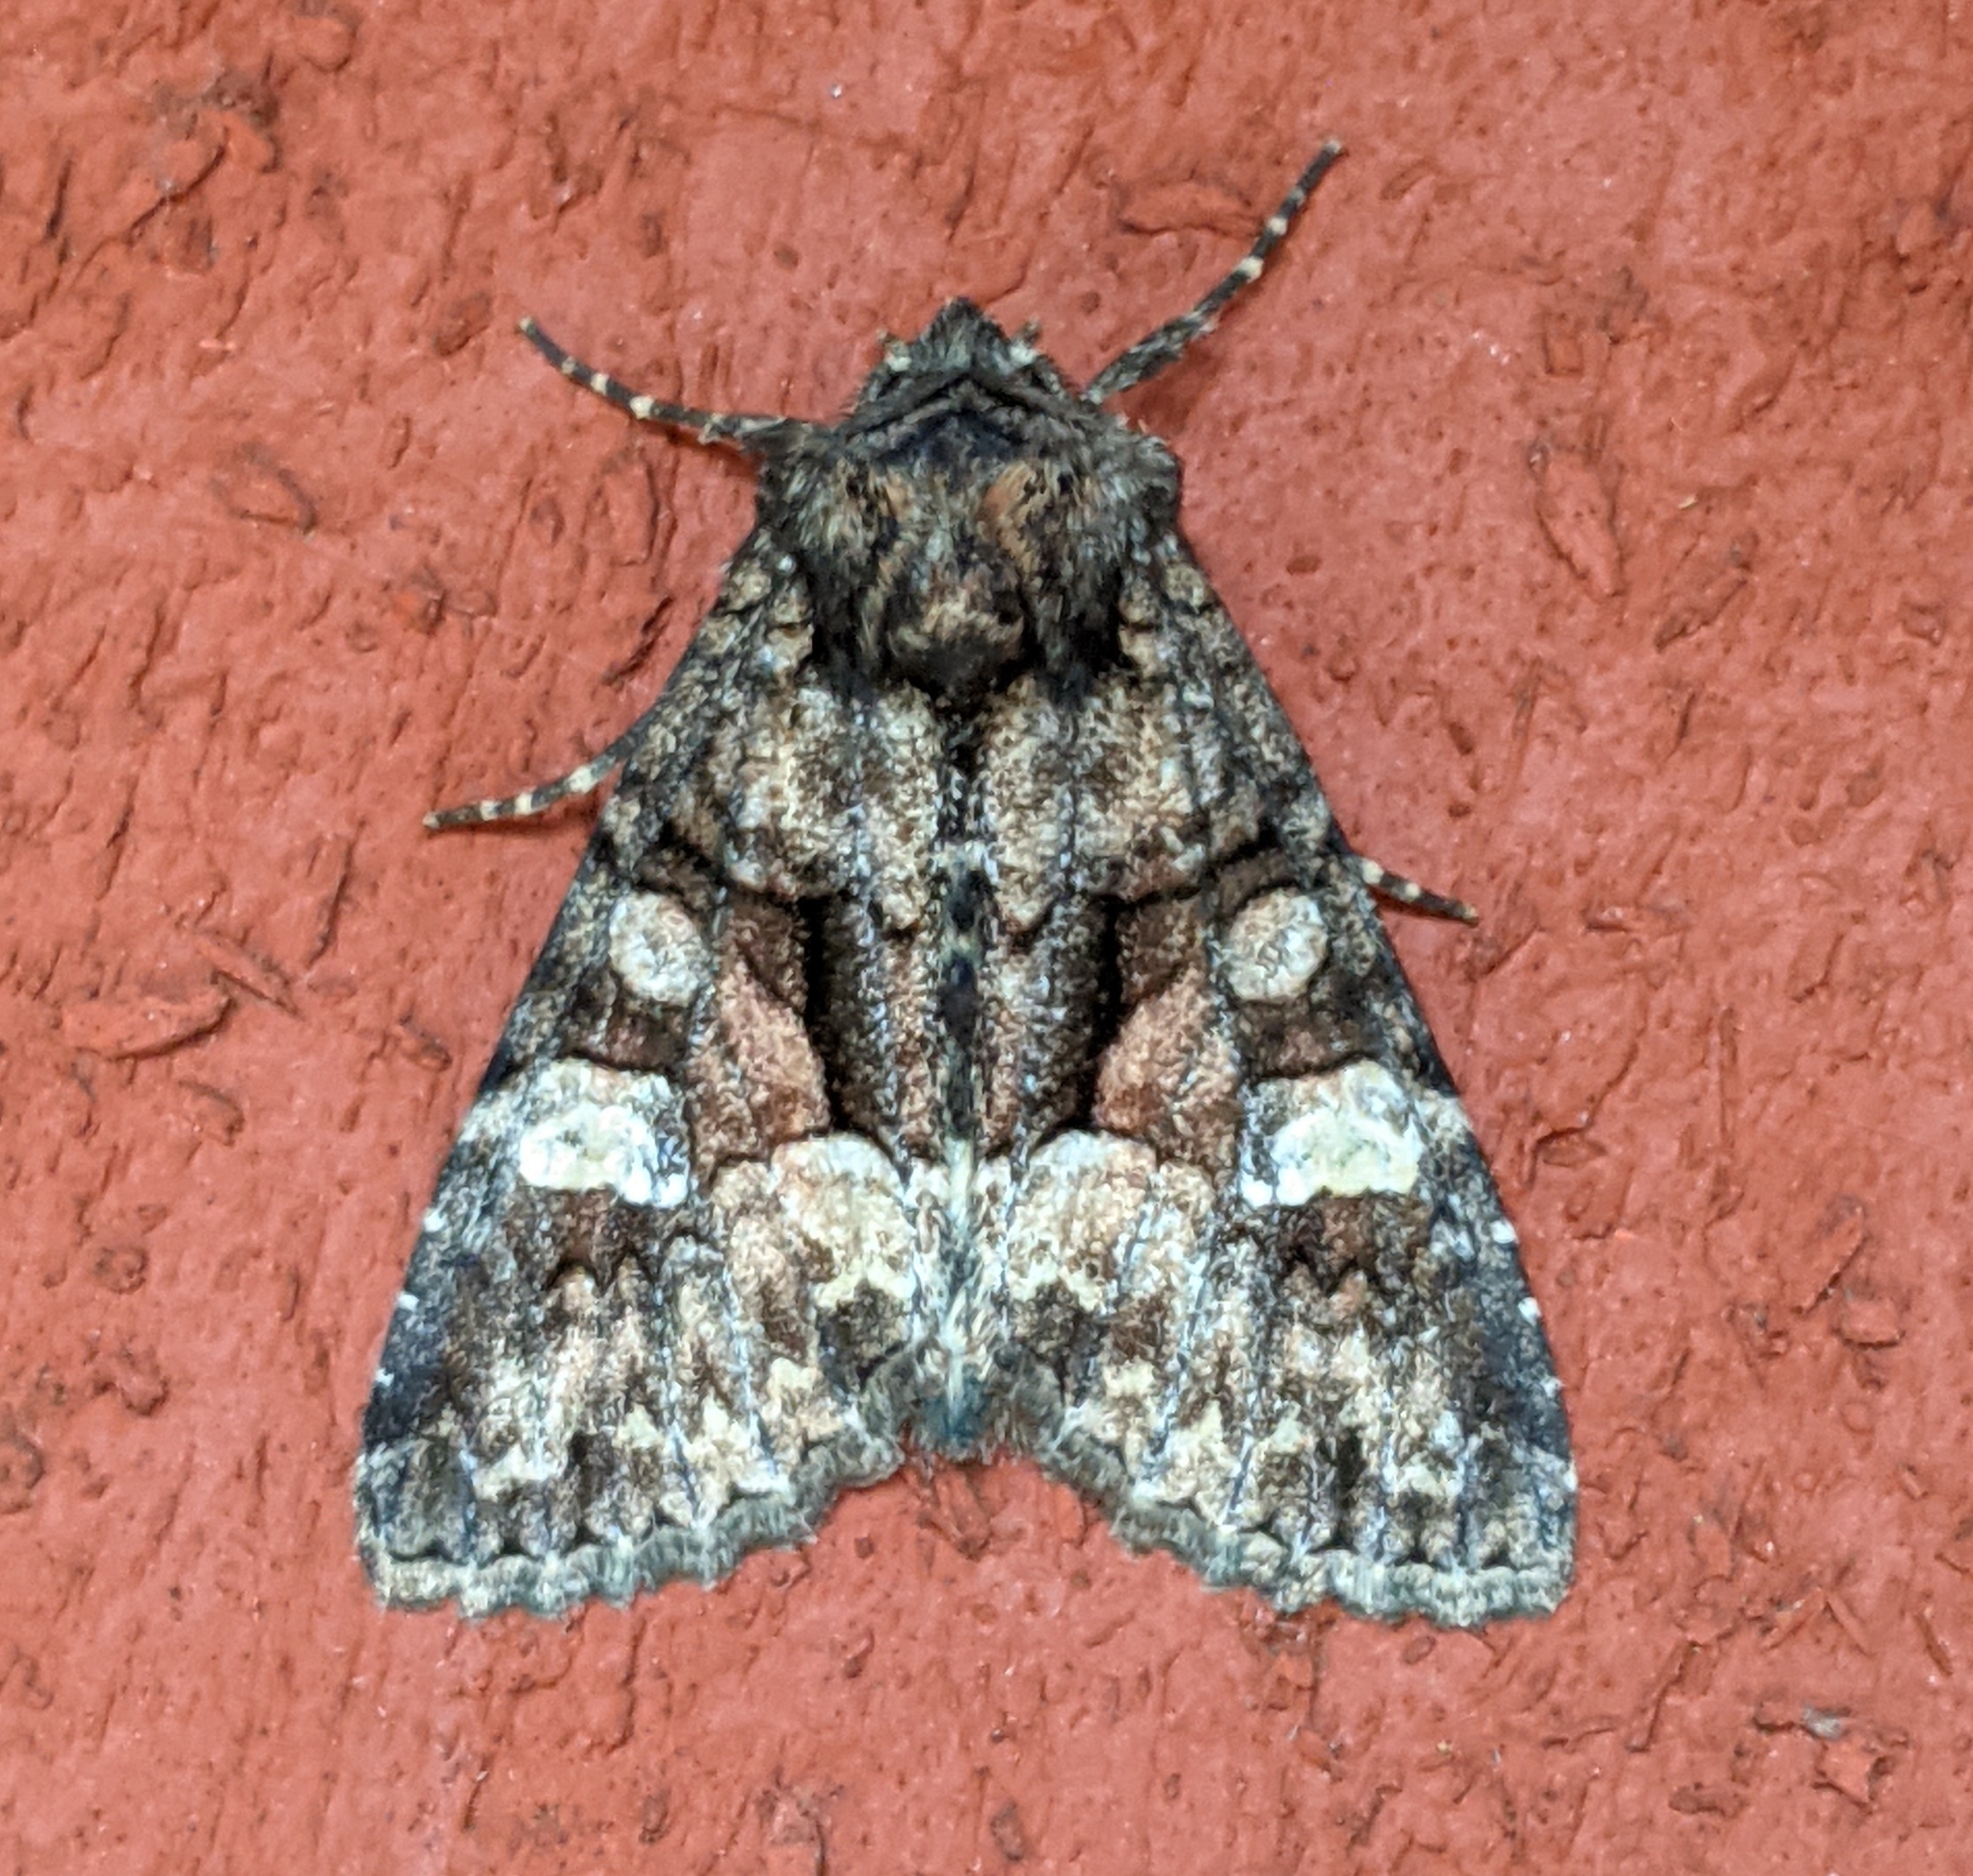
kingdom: Animalia
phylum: Arthropoda
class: Insecta
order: Lepidoptera
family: Noctuidae
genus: Fishia
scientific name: Fishia illocata
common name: Wandering brocade moth
